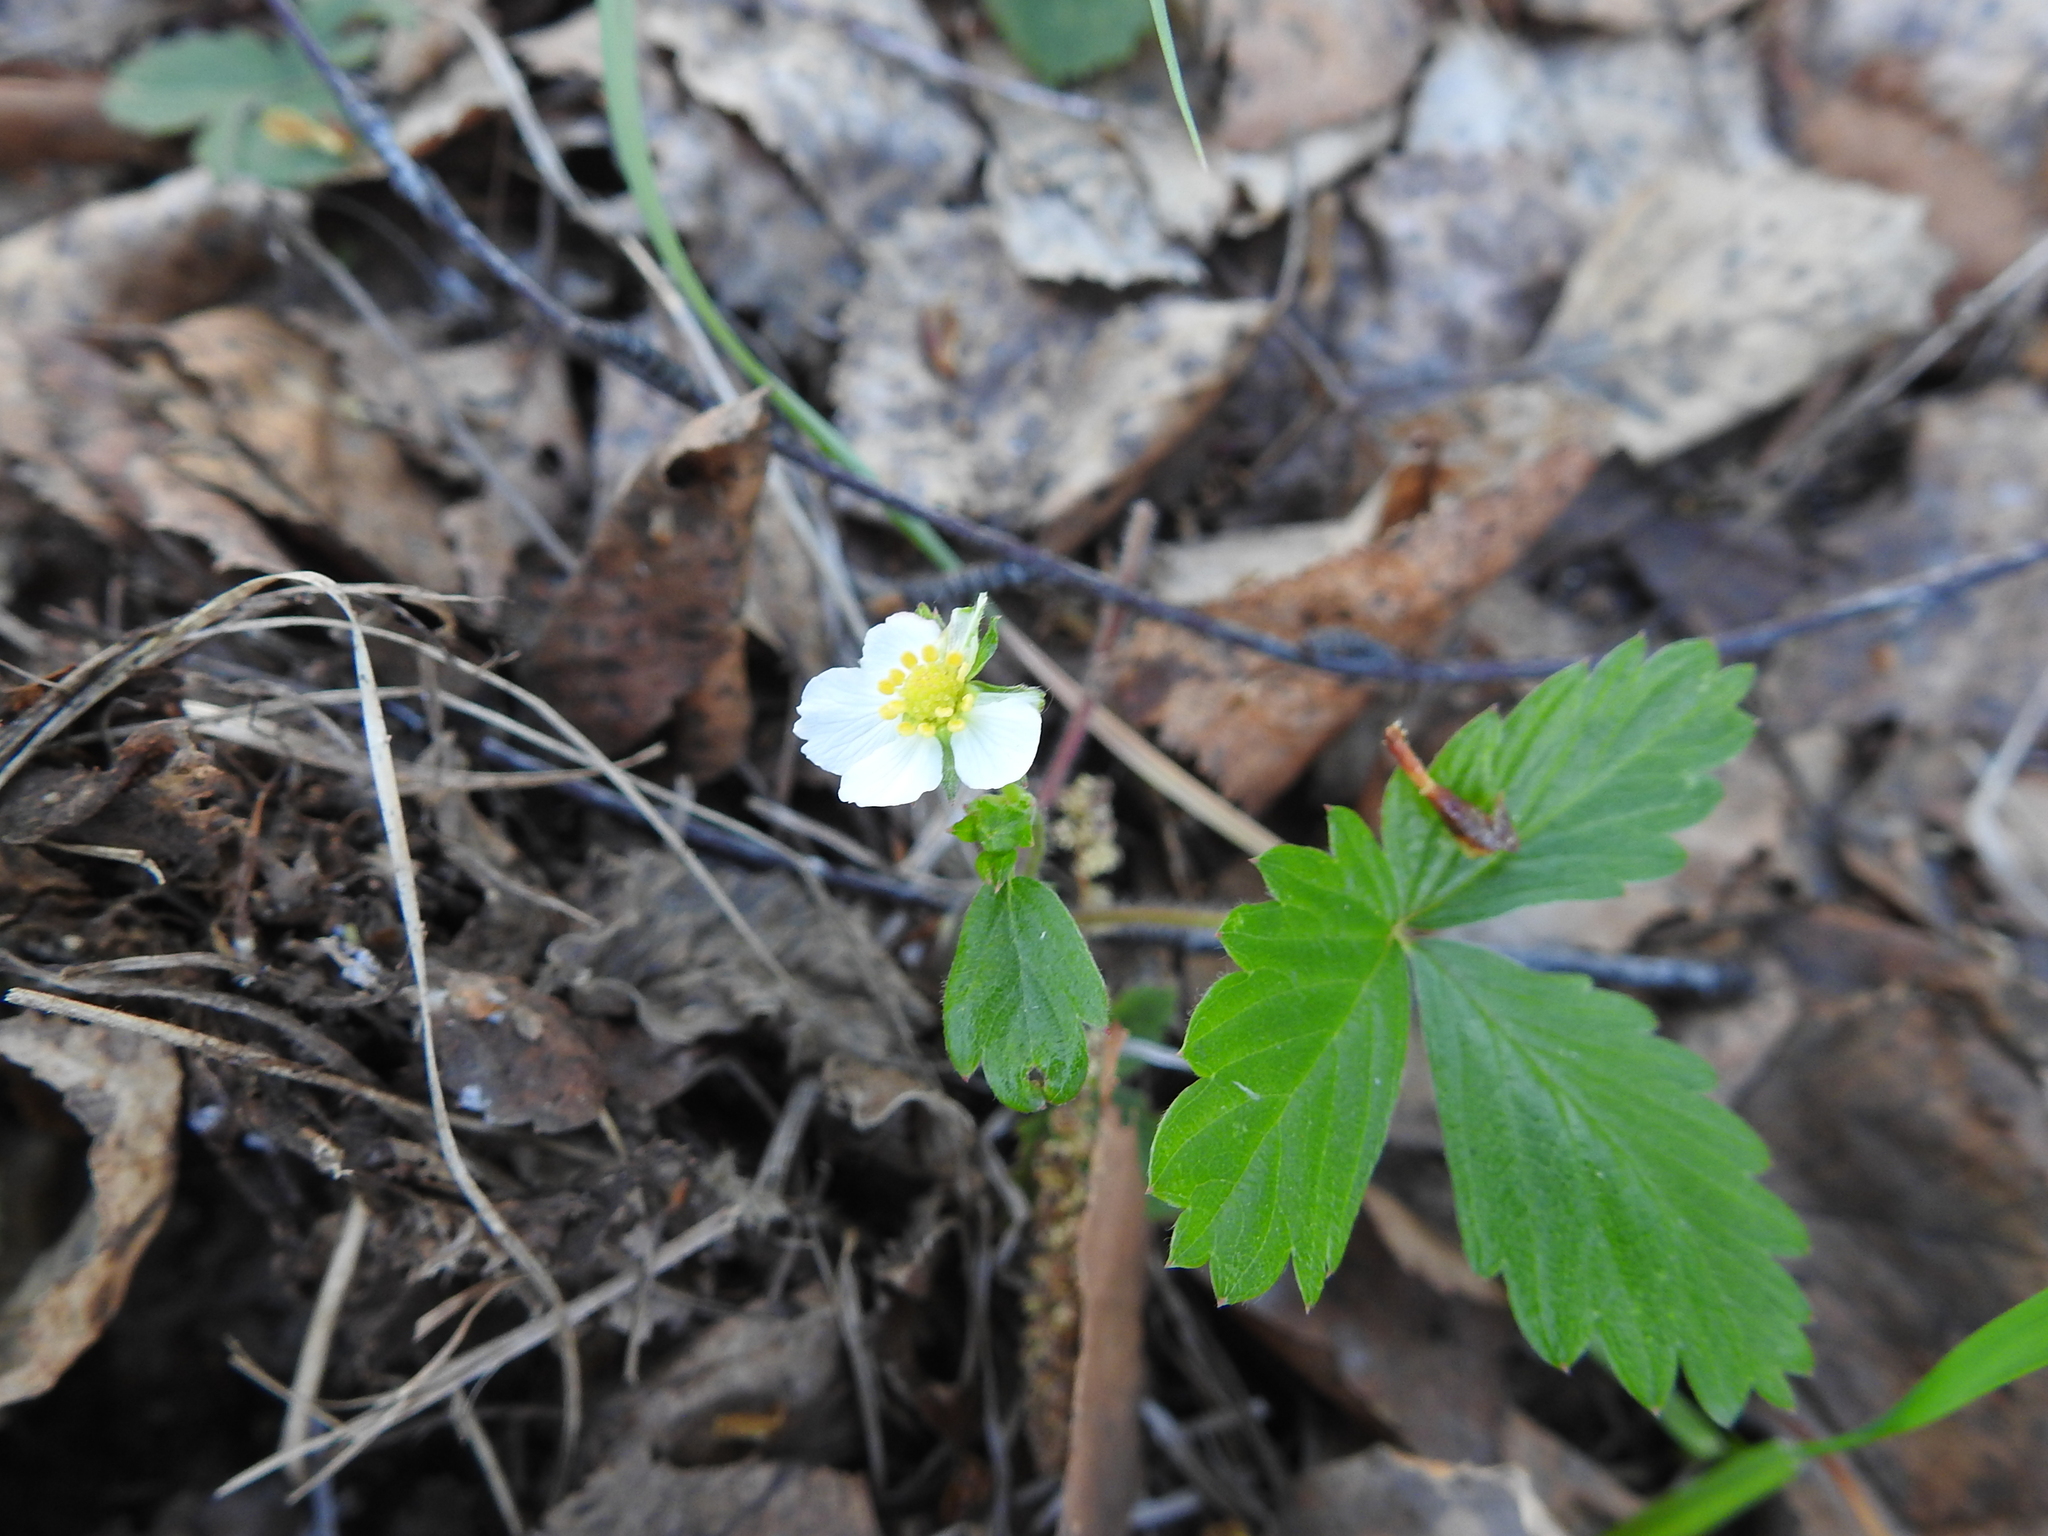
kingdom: Plantae
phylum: Tracheophyta
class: Magnoliopsida
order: Rosales
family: Rosaceae
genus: Fragaria
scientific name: Fragaria vesca
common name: Wild strawberry
